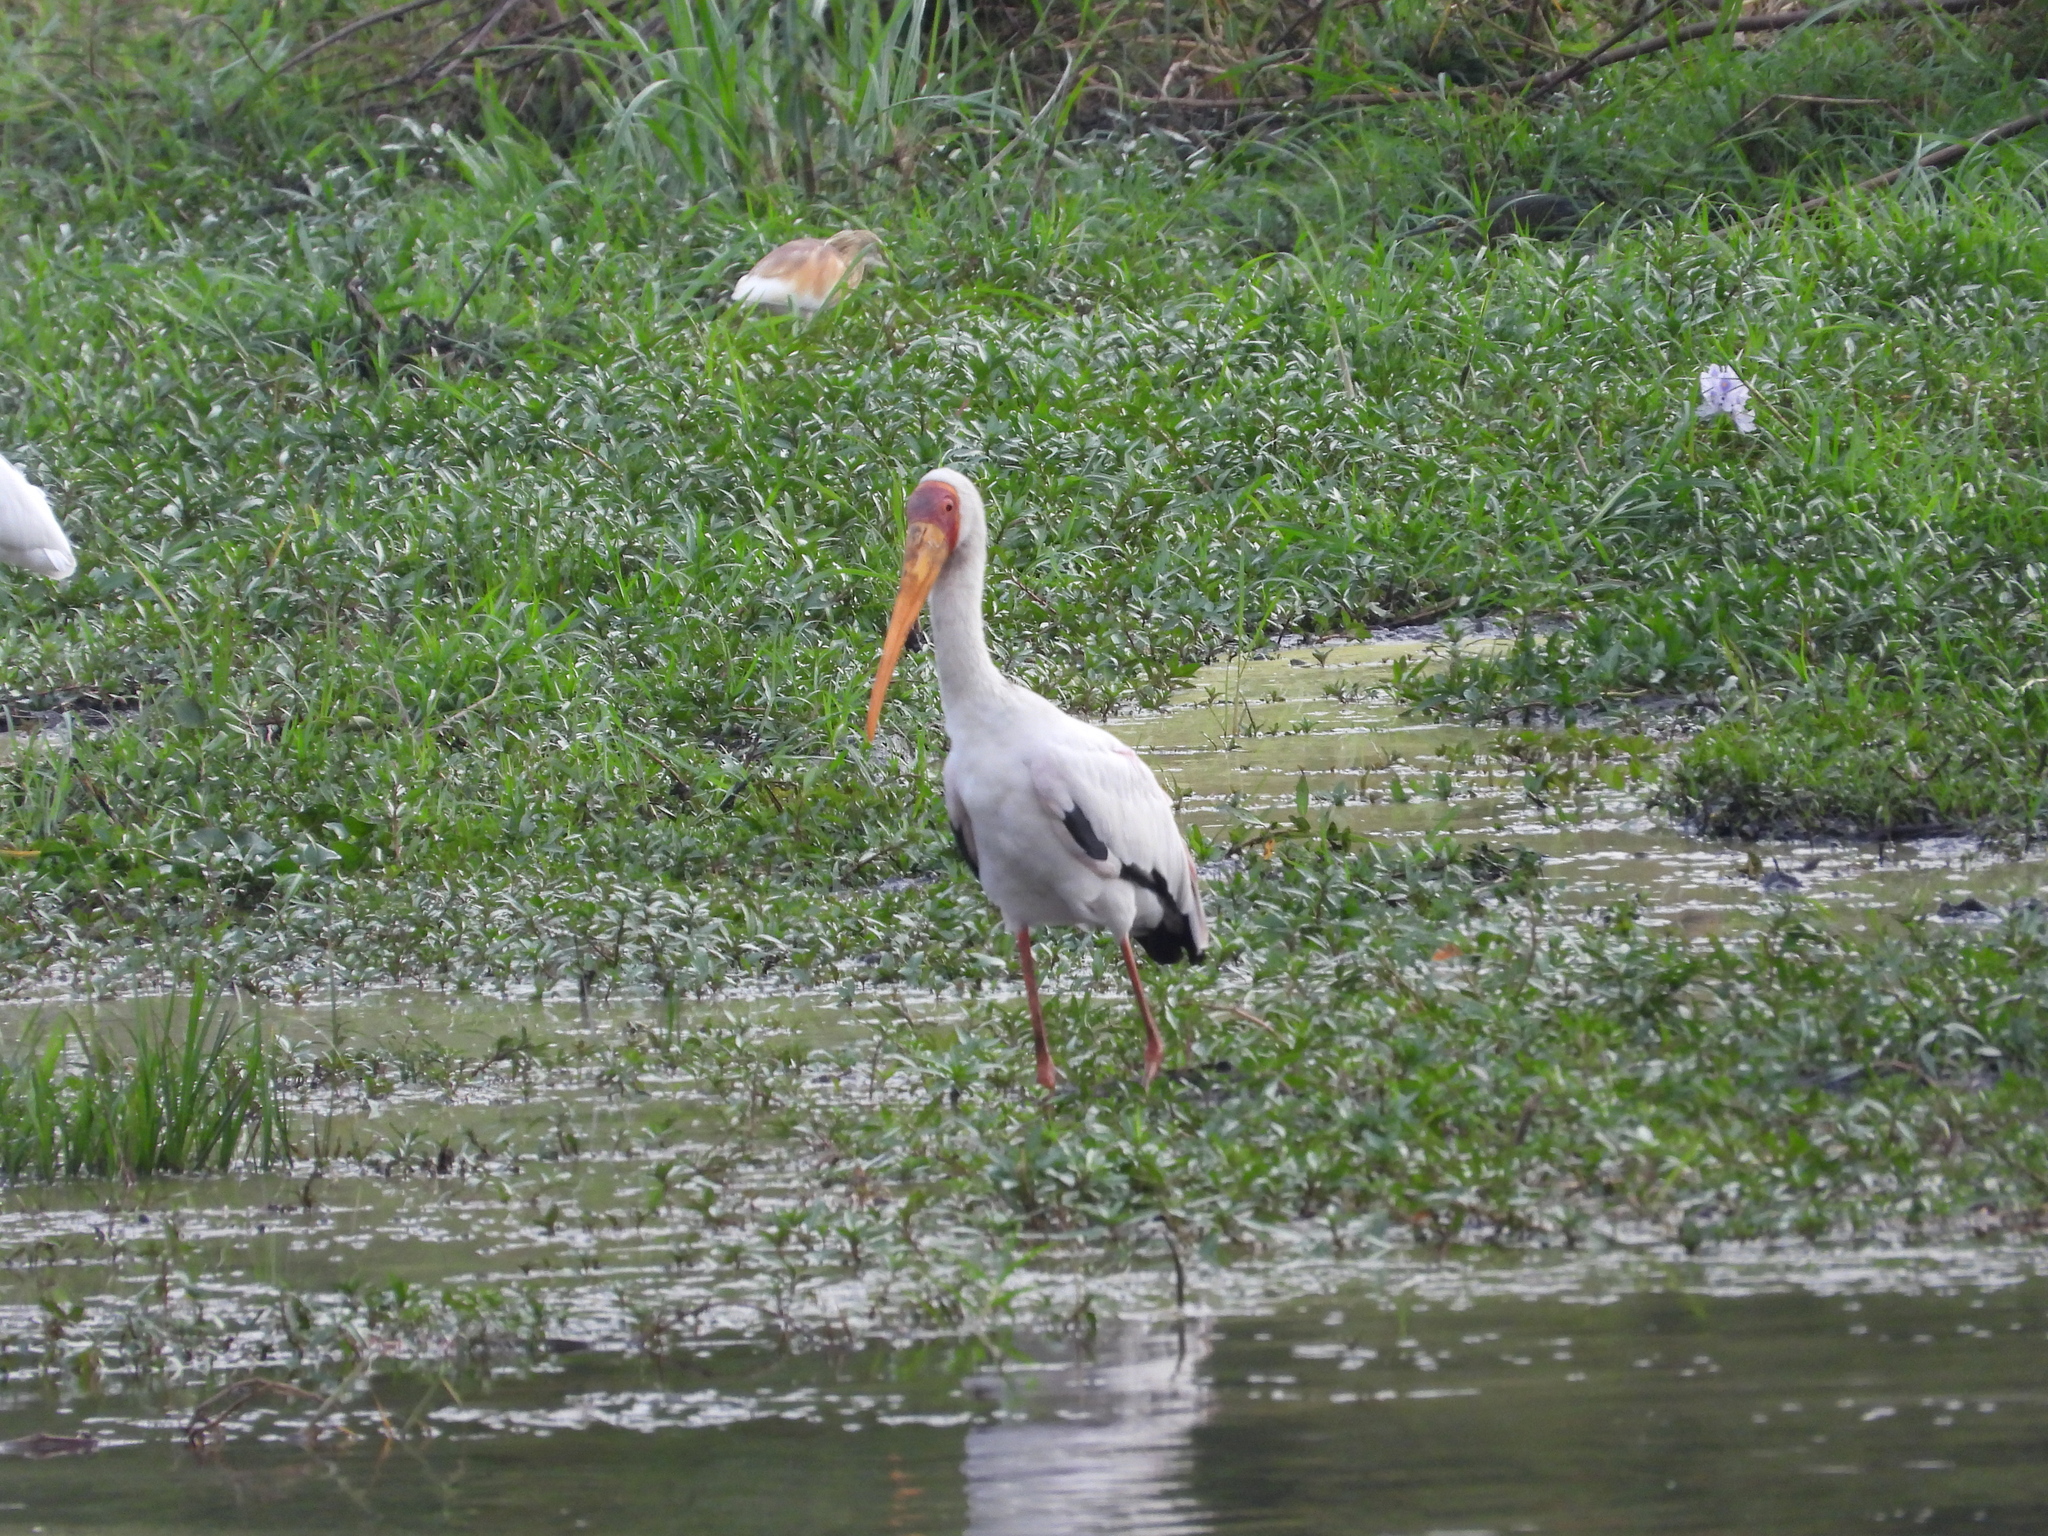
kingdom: Animalia
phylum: Chordata
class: Aves
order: Ciconiiformes
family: Ciconiidae
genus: Mycteria
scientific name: Mycteria ibis
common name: Yellow-billed stork
